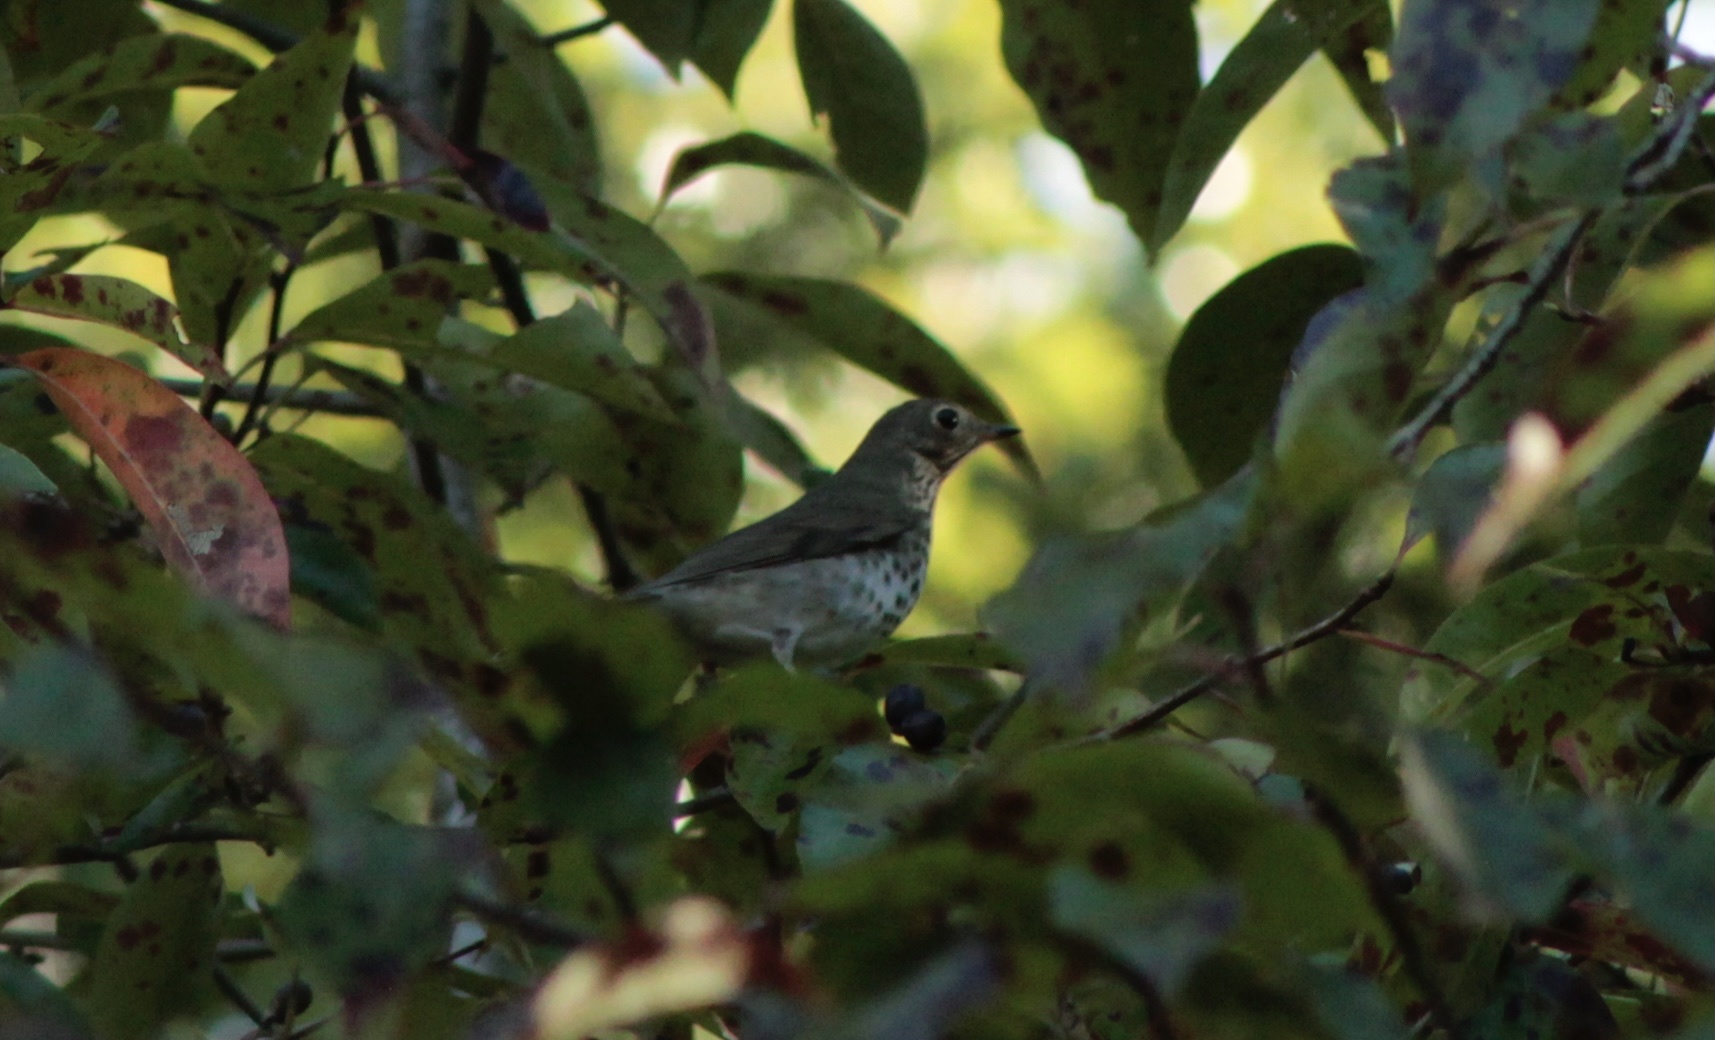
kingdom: Animalia
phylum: Chordata
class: Aves
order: Passeriformes
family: Turdidae
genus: Catharus
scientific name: Catharus ustulatus
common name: Swainson's thrush
